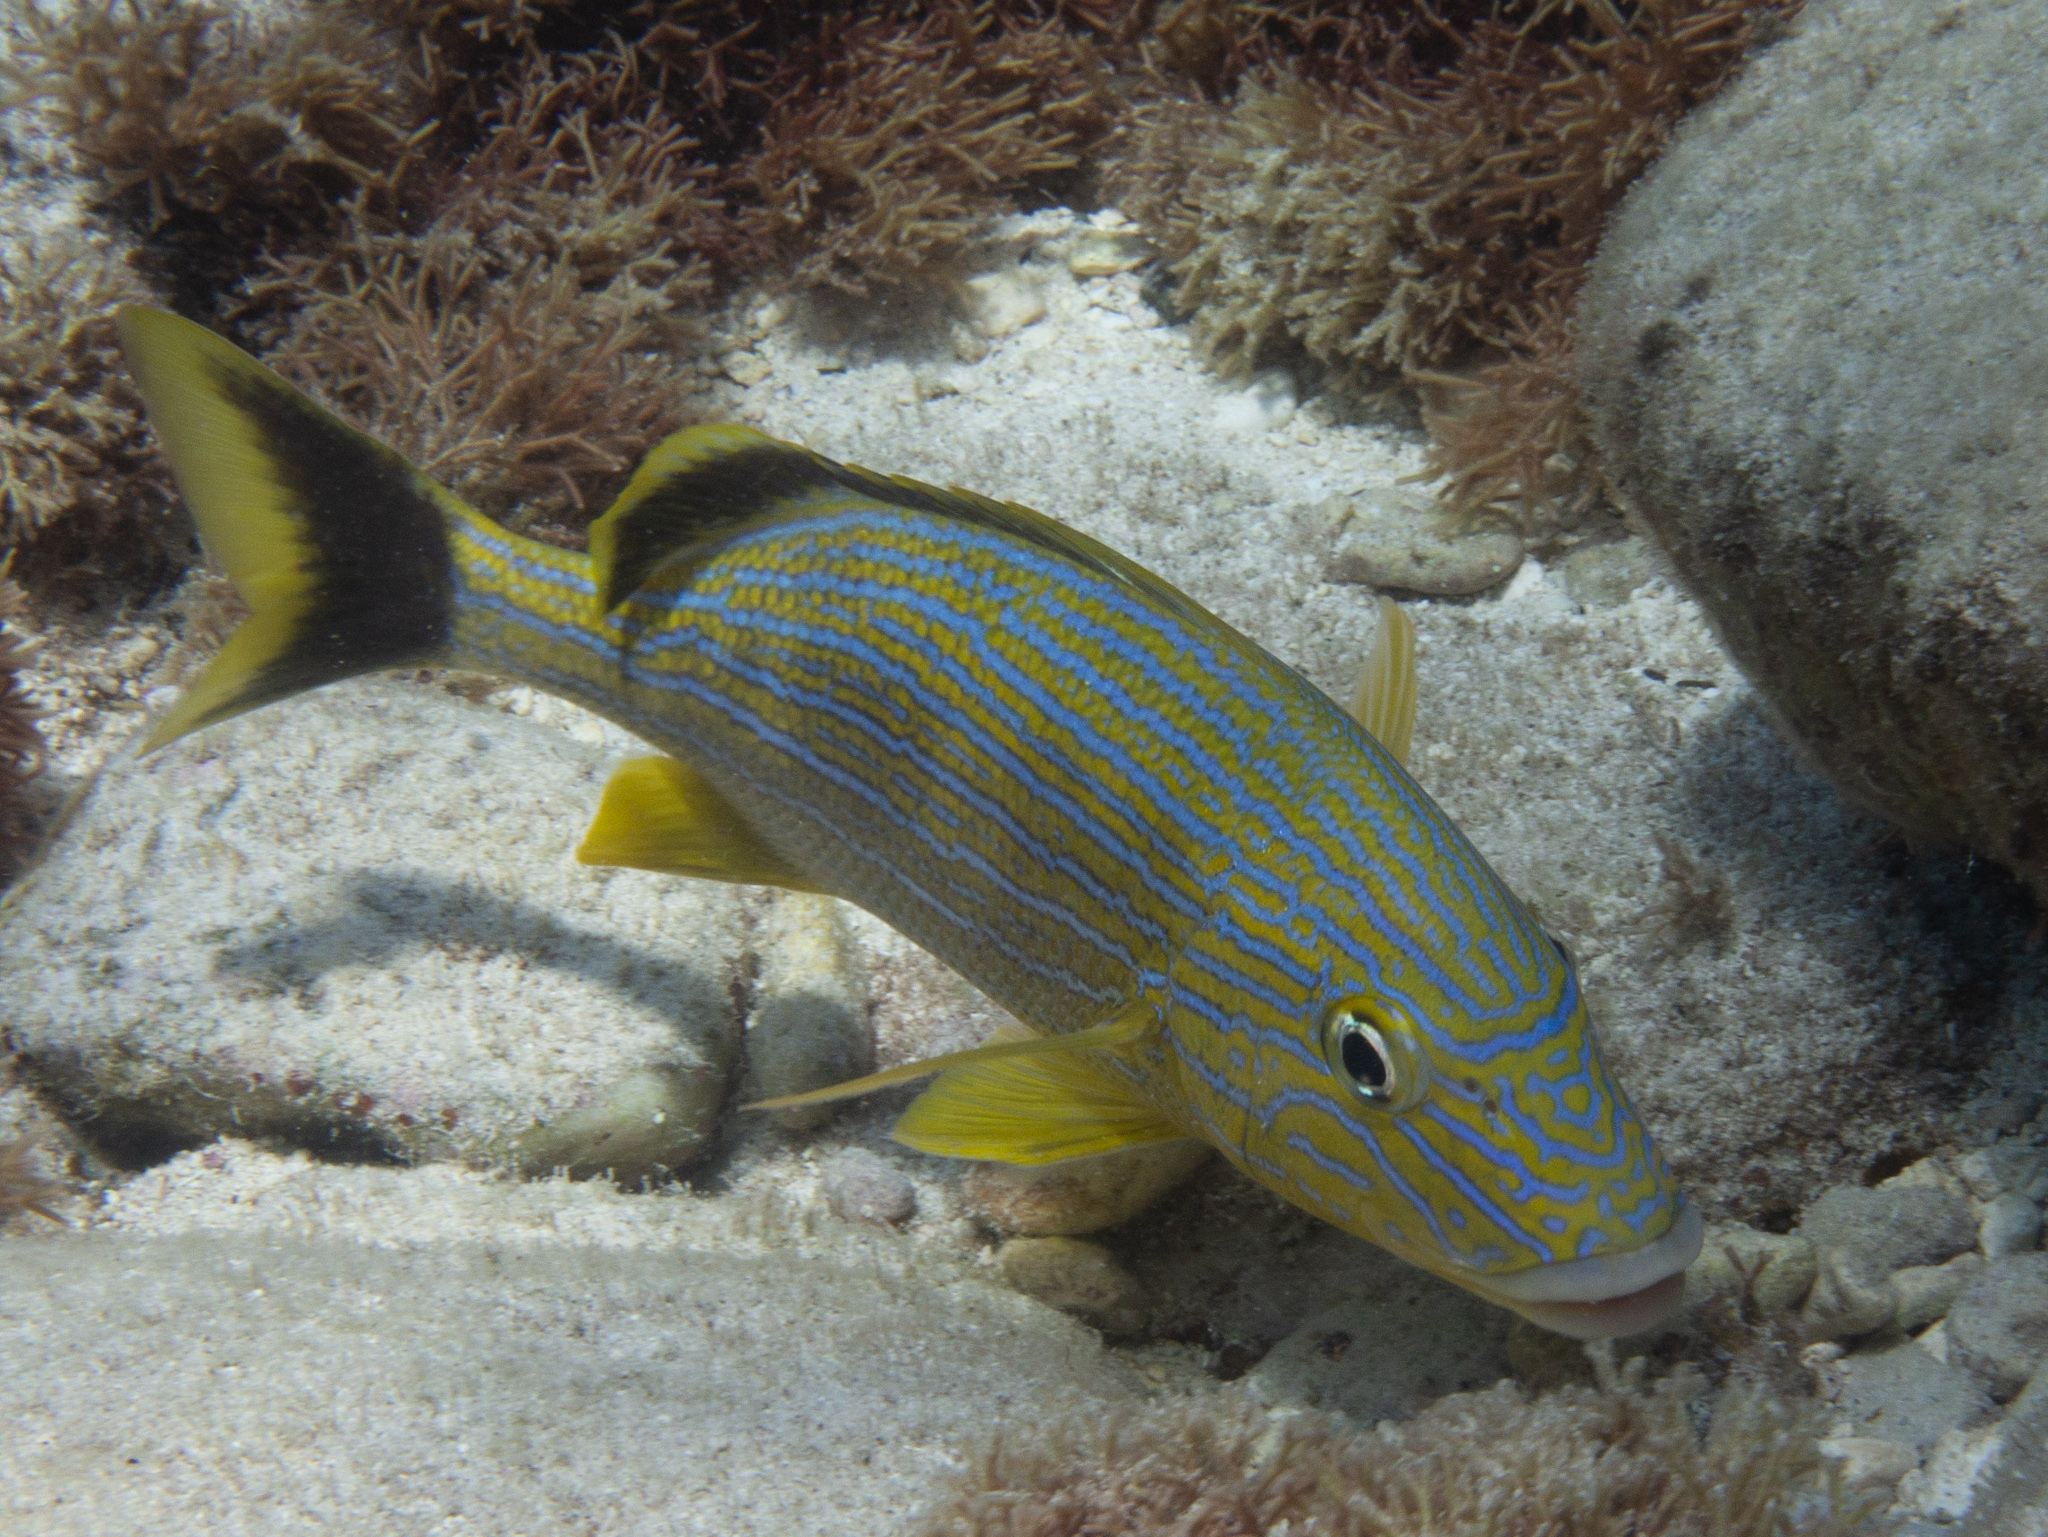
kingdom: Animalia
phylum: Chordata
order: Perciformes
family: Haemulidae
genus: Haemulon
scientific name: Haemulon sciurus
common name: Bluestriped grunt
